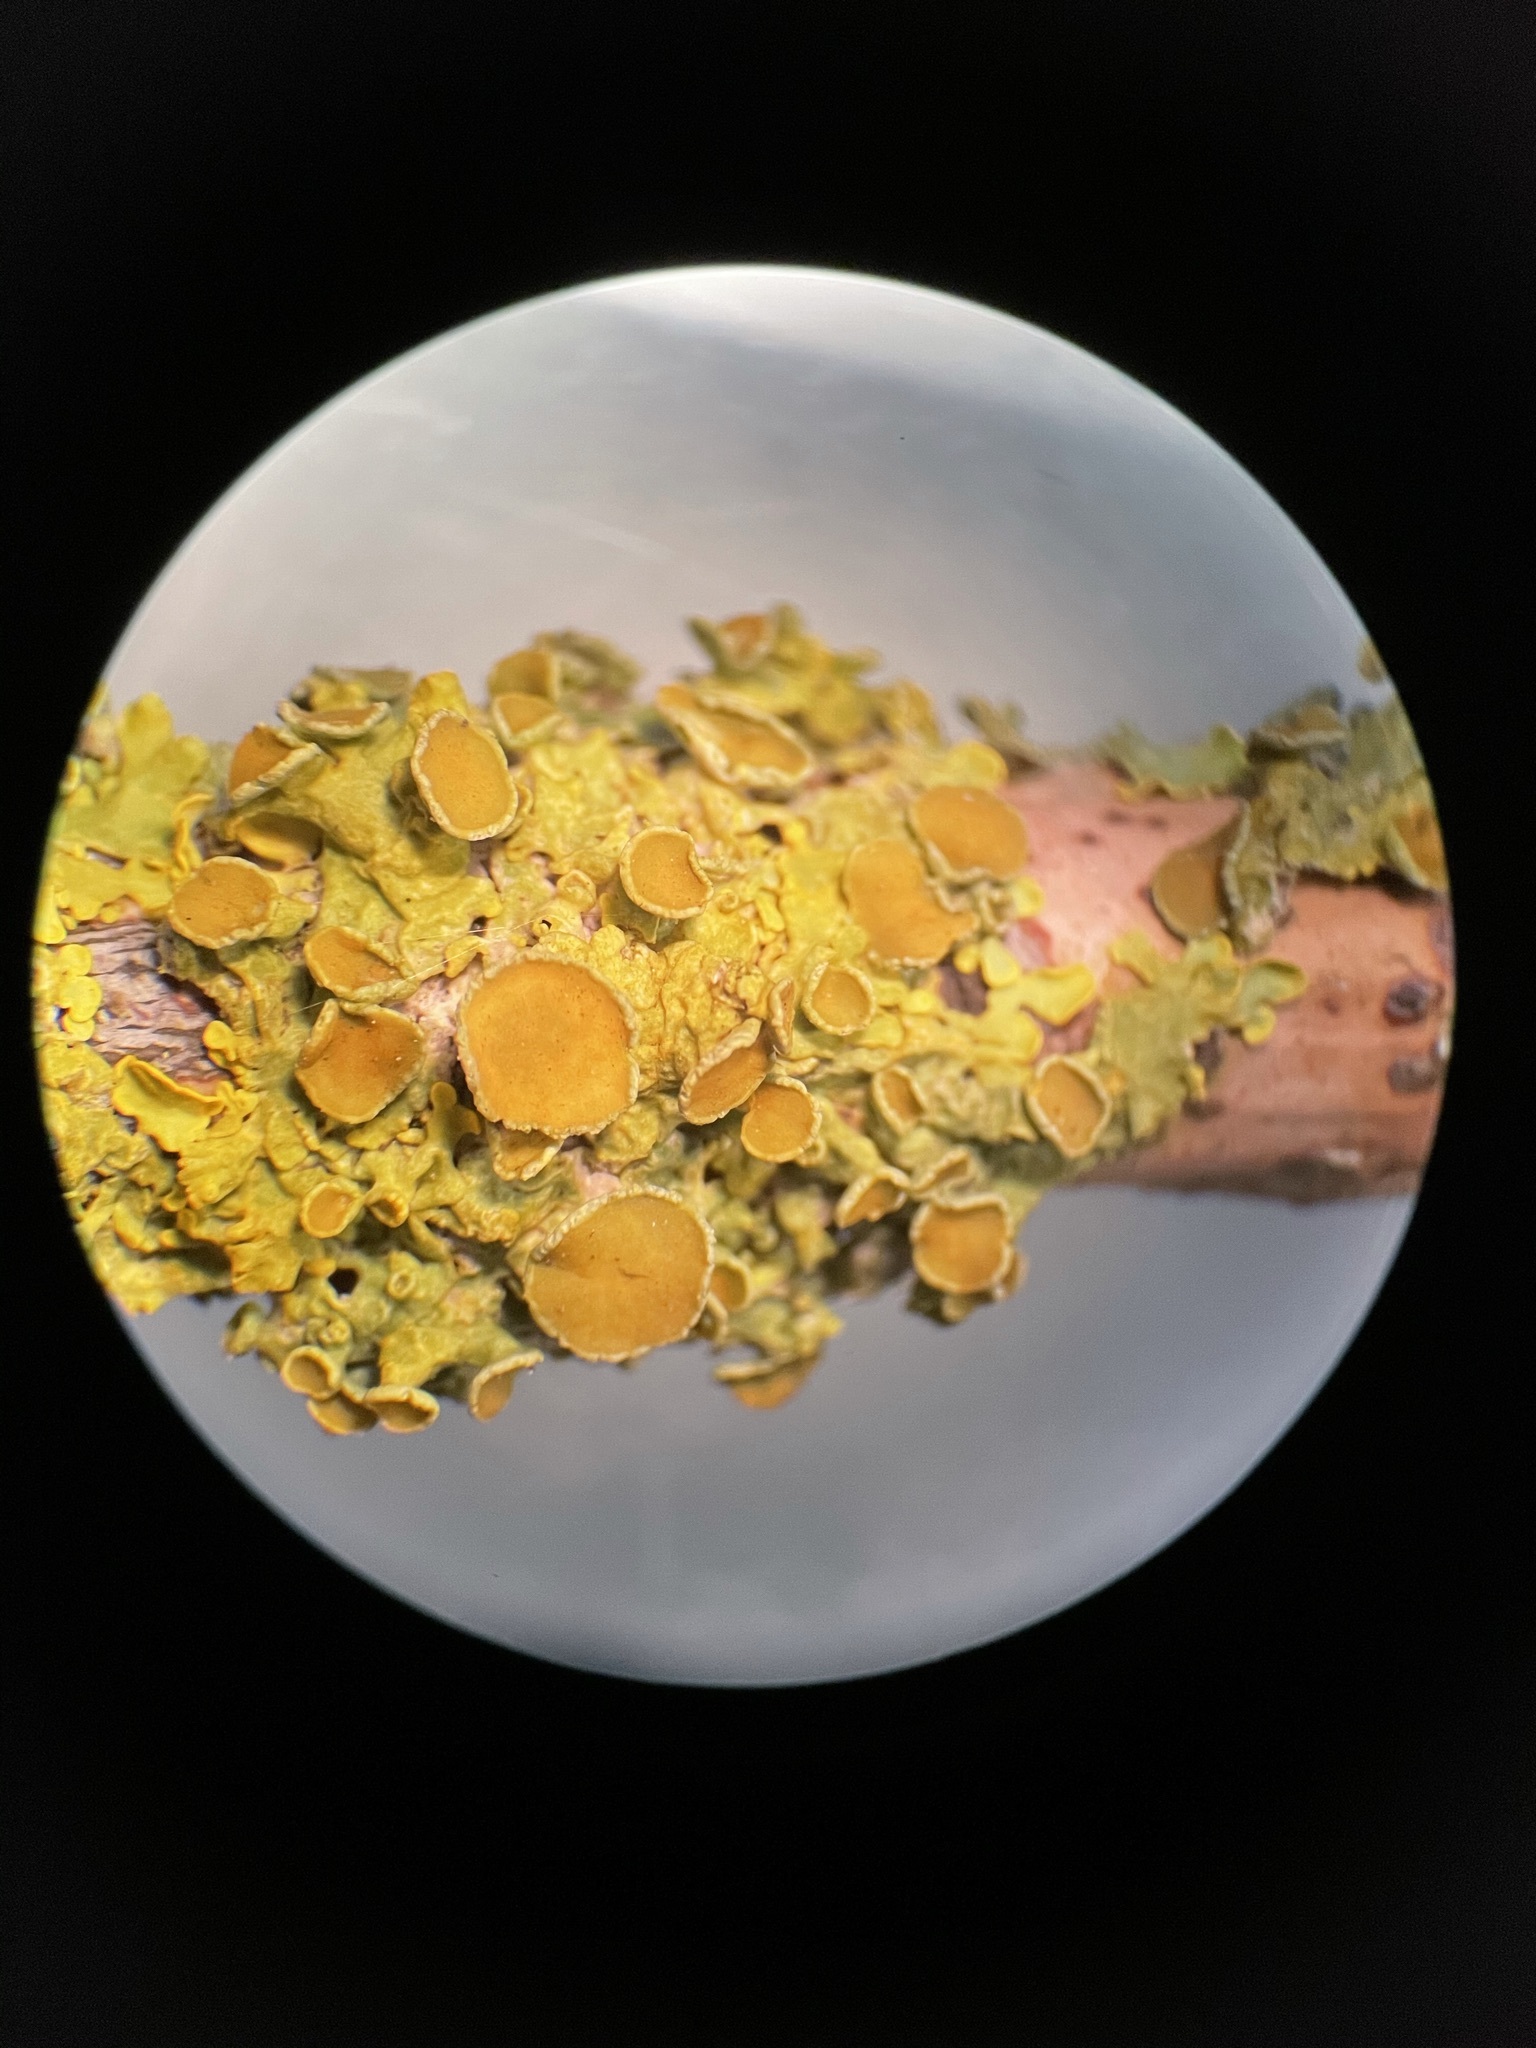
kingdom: Fungi
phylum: Ascomycota
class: Lecanoromycetes
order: Teloschistales
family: Teloschistaceae
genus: Xanthoria
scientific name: Xanthoria parietina
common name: Common orange lichen
